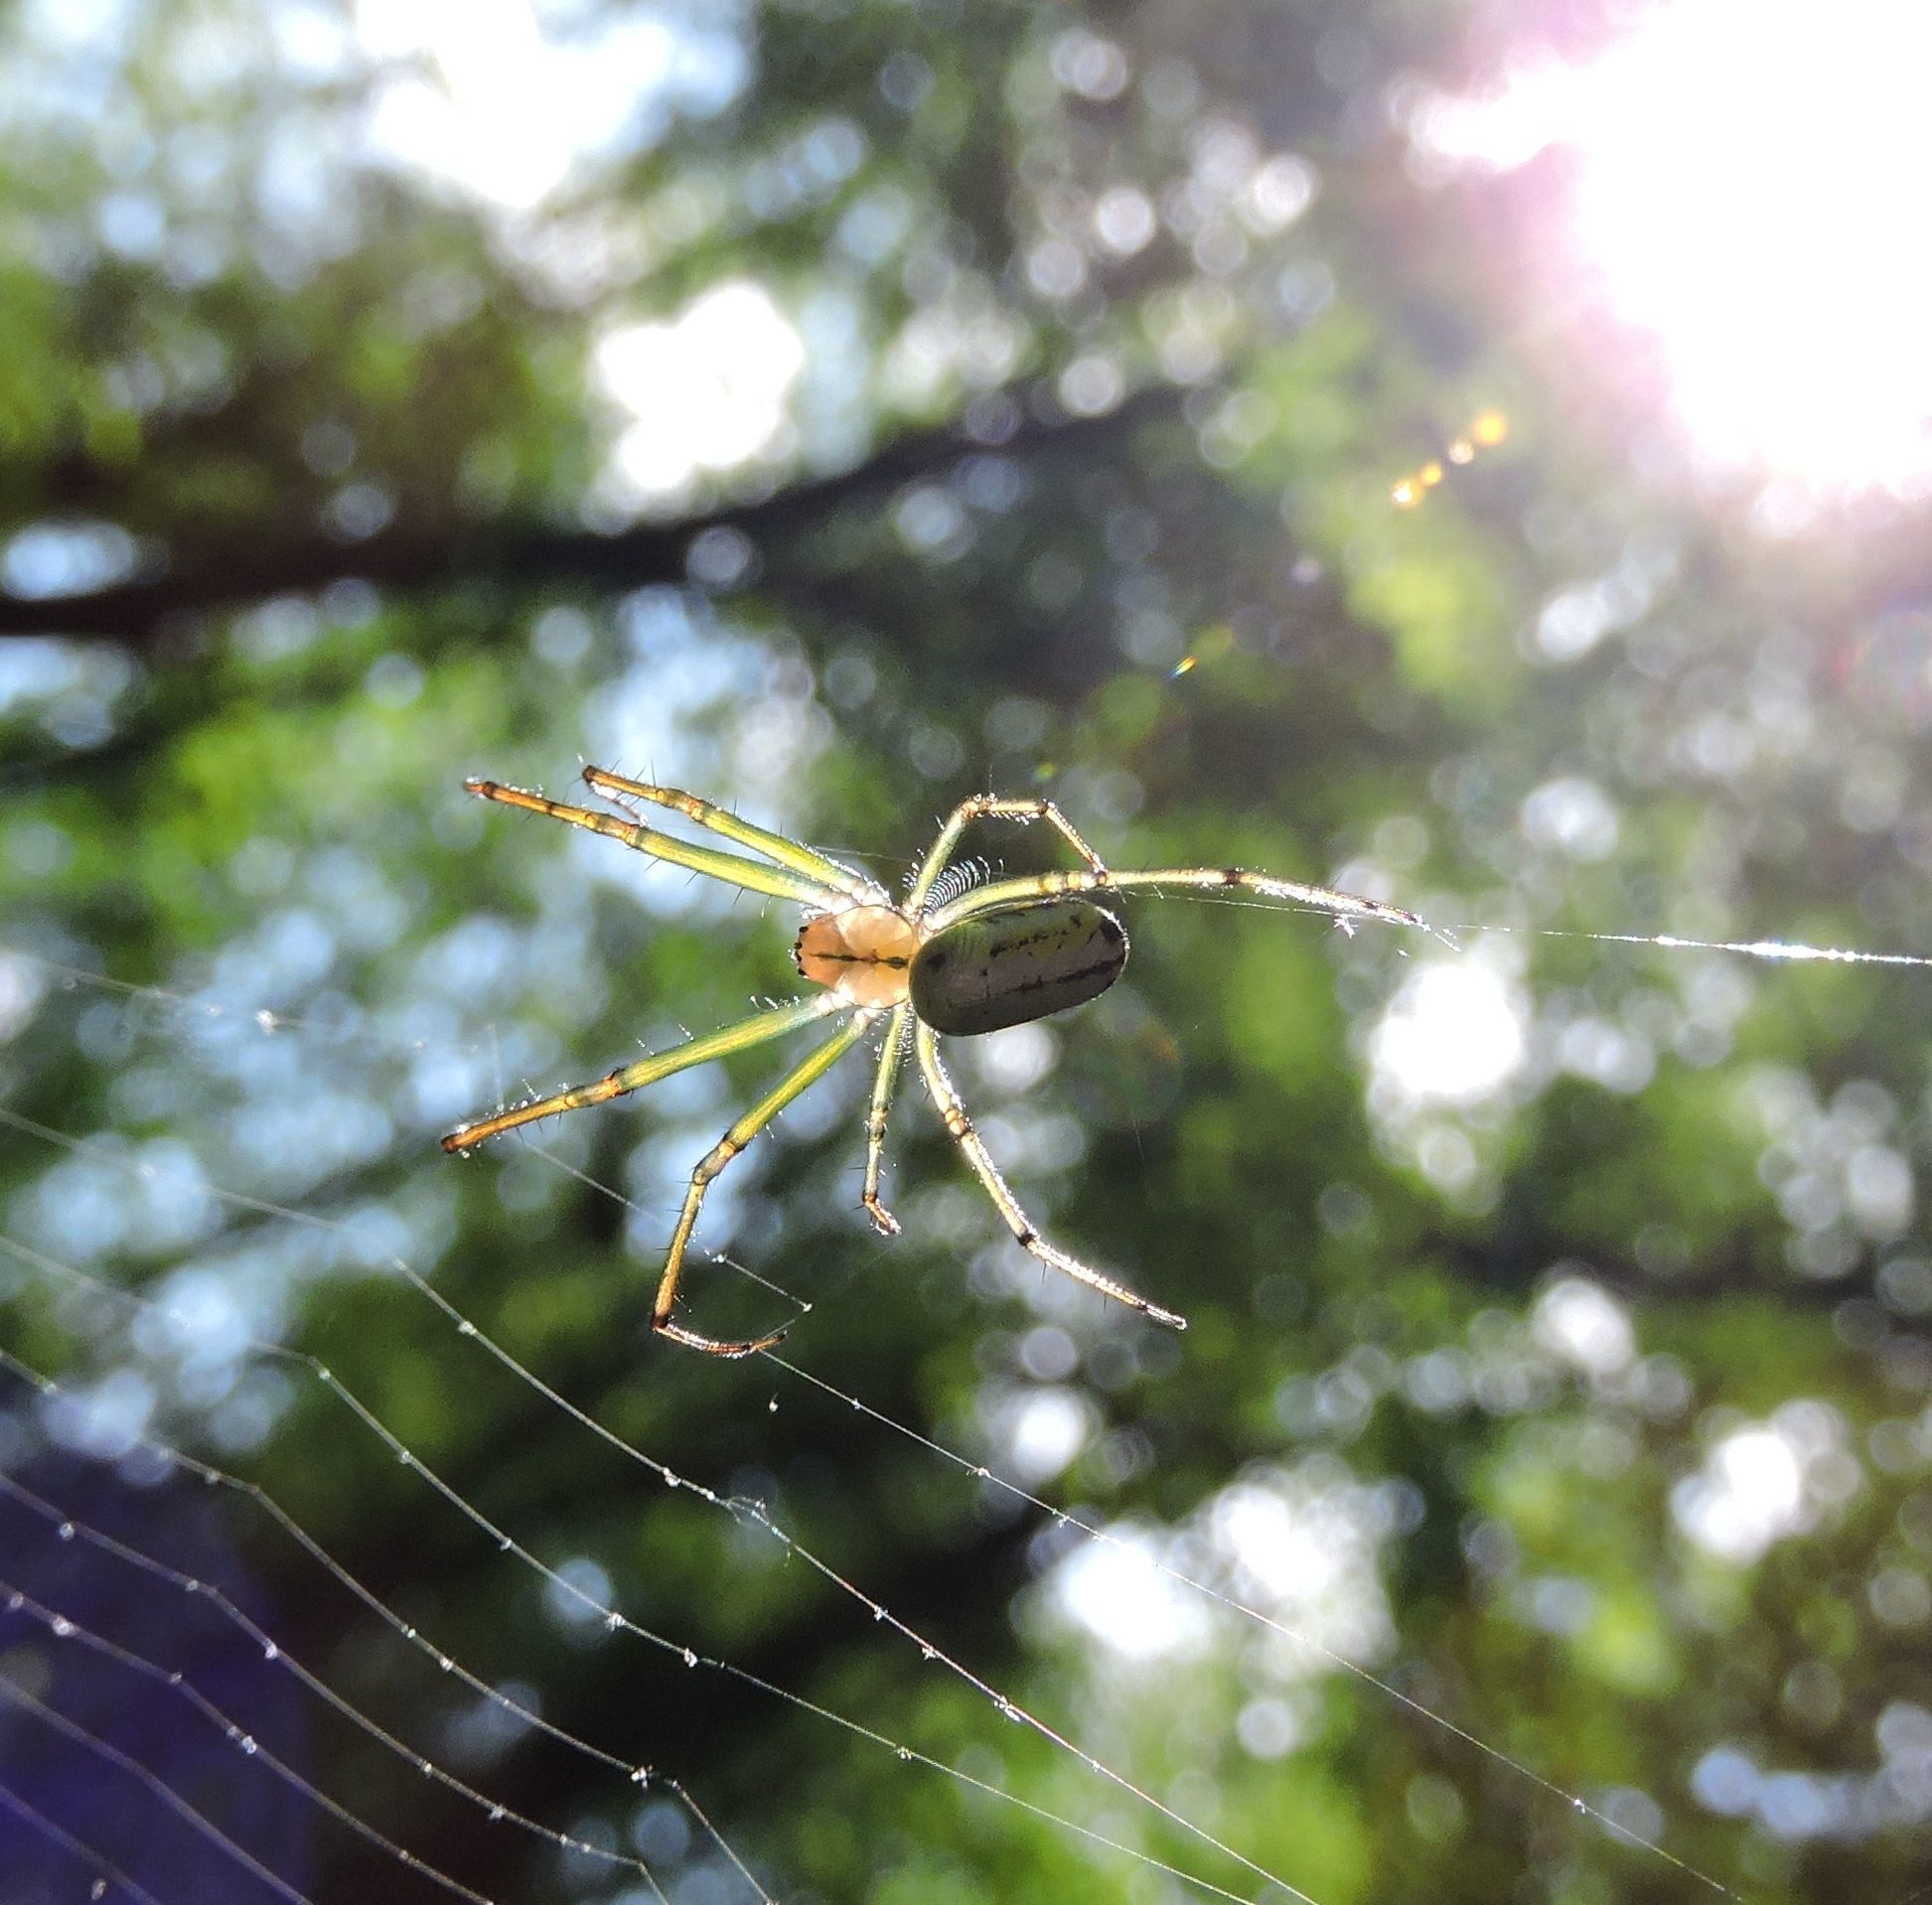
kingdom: Animalia
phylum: Arthropoda
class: Arachnida
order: Araneae
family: Tetragnathidae
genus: Leucauge
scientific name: Leucauge venusta
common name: Longjawed orb weavers
